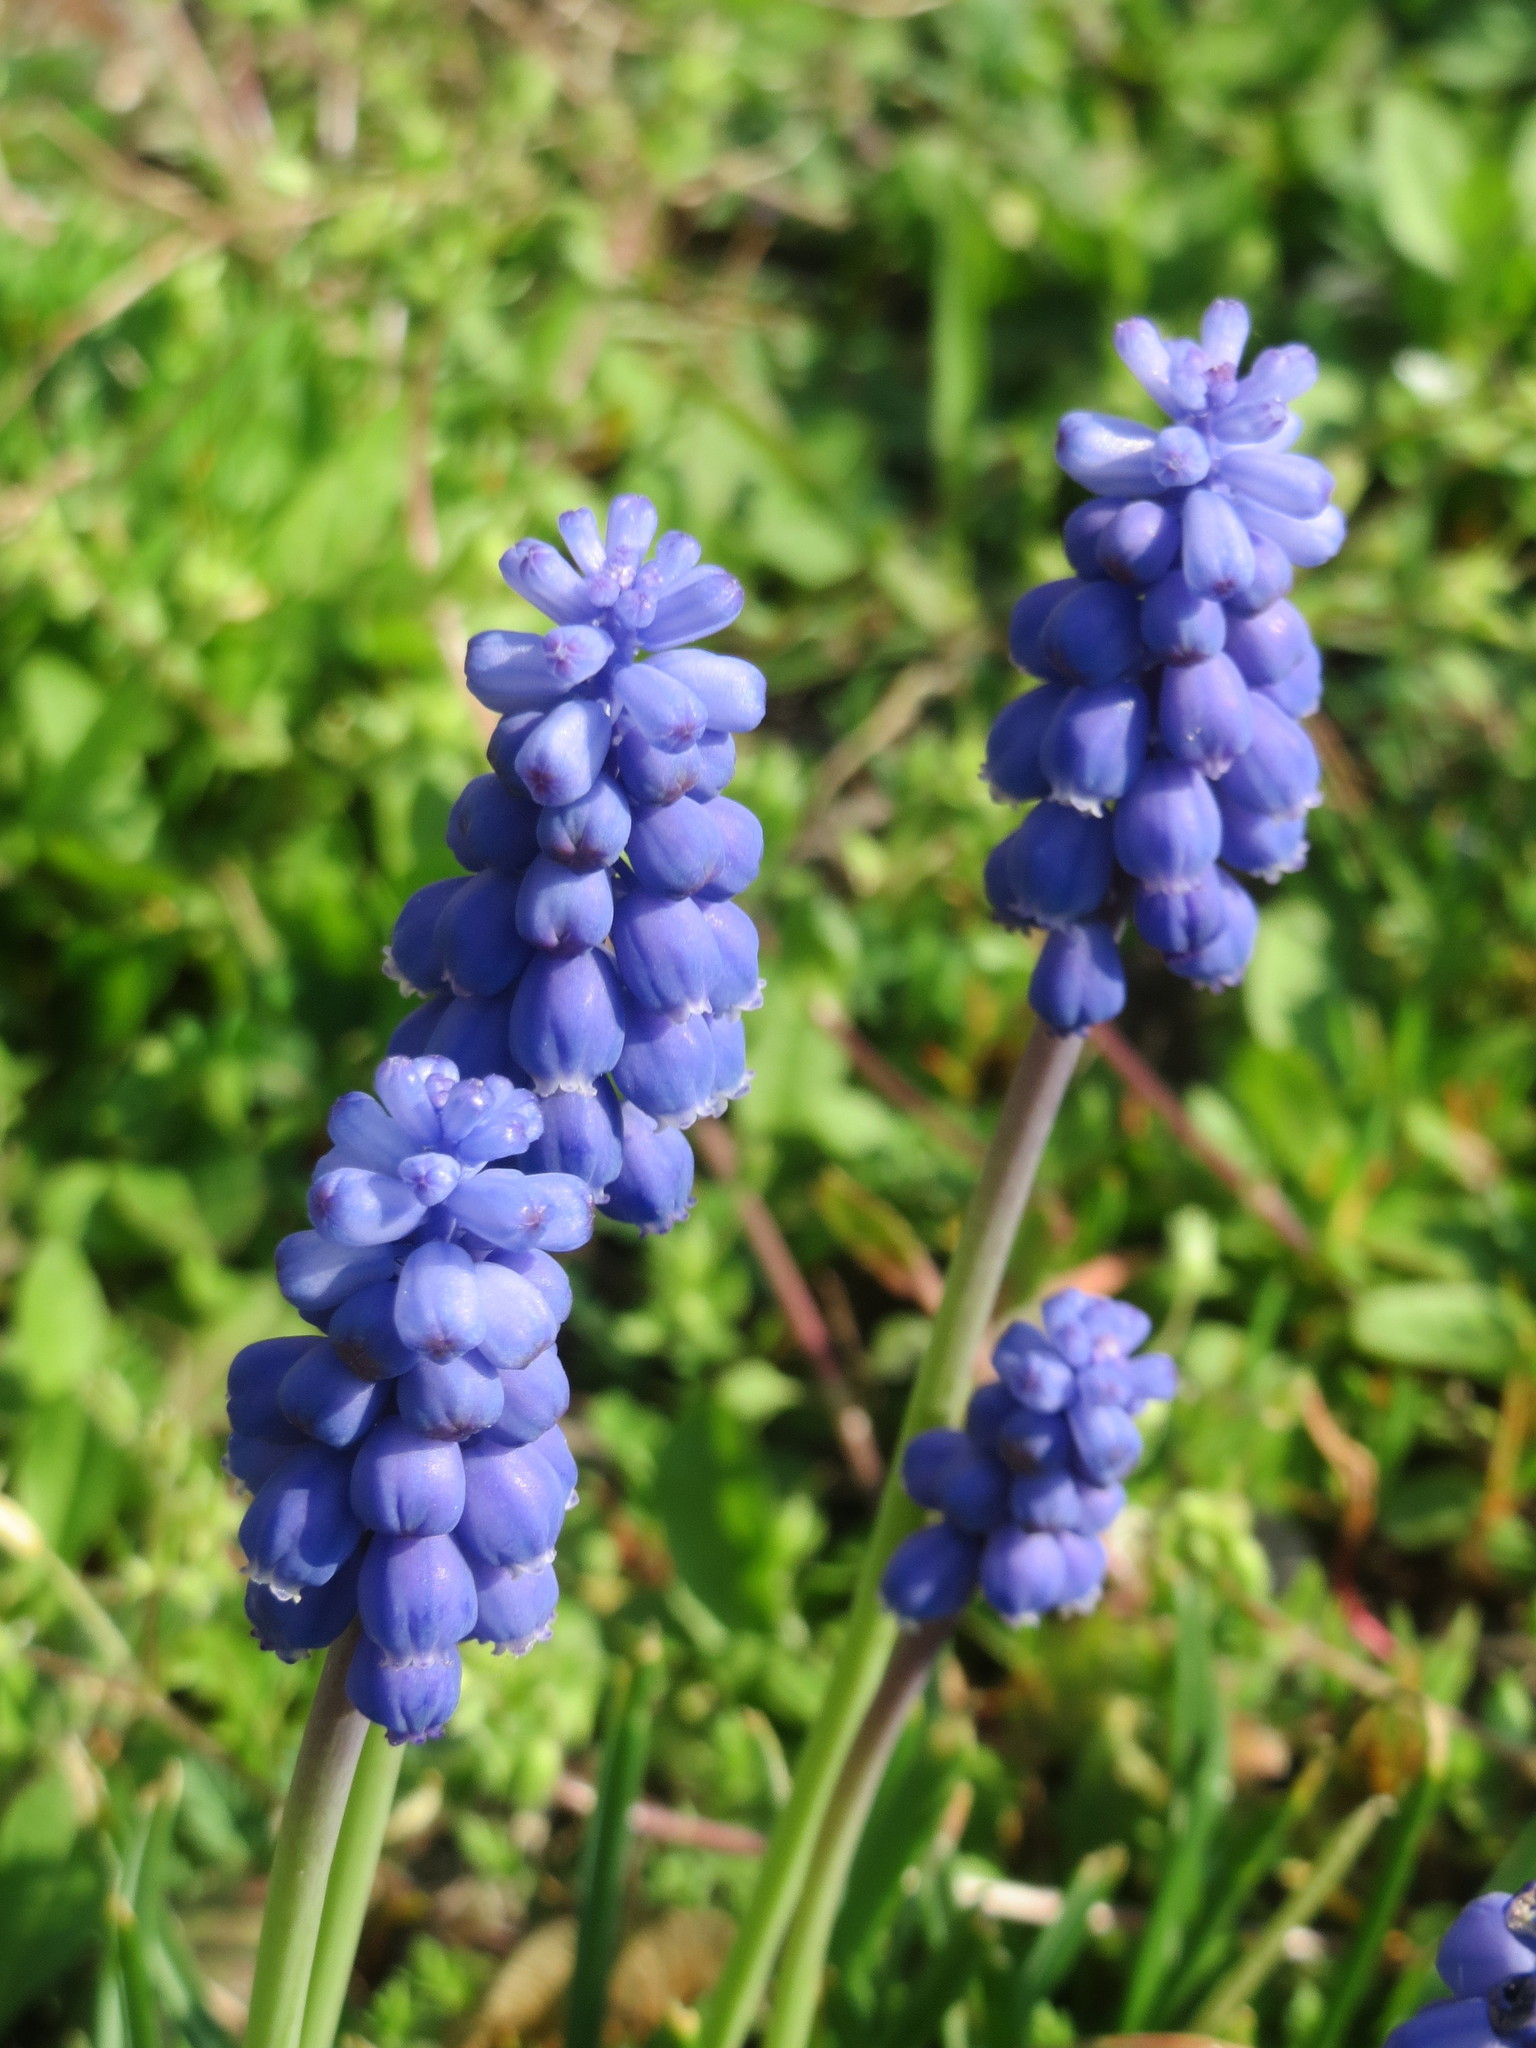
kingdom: Plantae
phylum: Tracheophyta
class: Liliopsida
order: Asparagales
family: Asparagaceae
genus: Muscari
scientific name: Muscari armeniacum
